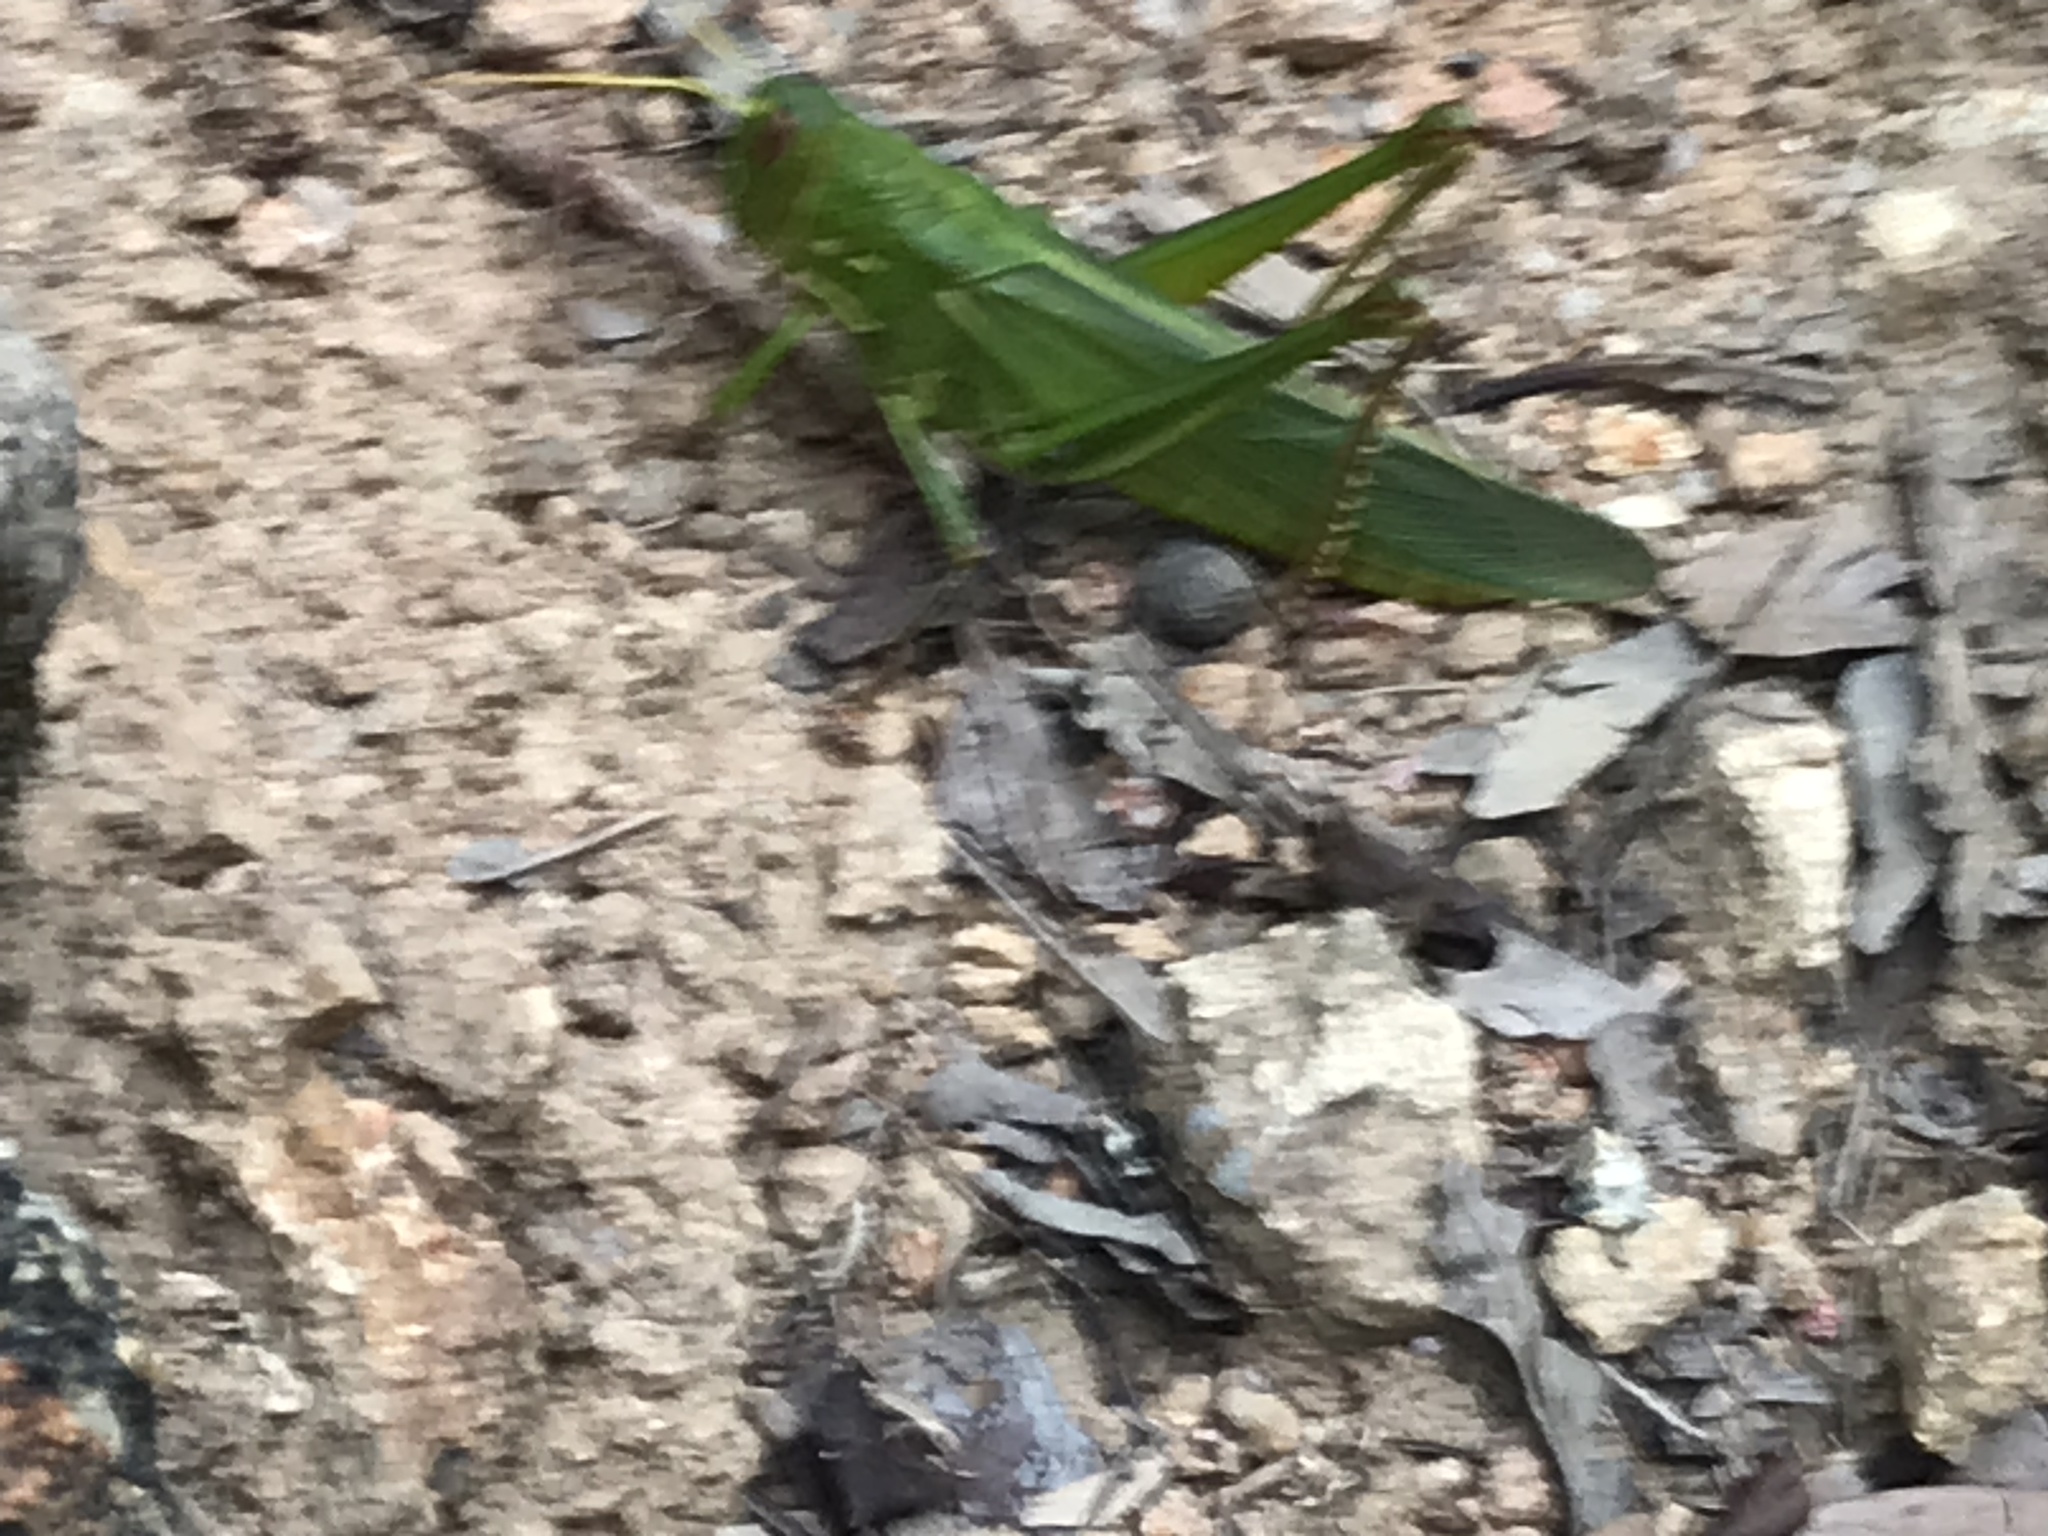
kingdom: Animalia
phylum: Arthropoda
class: Insecta
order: Orthoptera
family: Acrididae
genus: Chondracris
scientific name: Chondracris rosea
